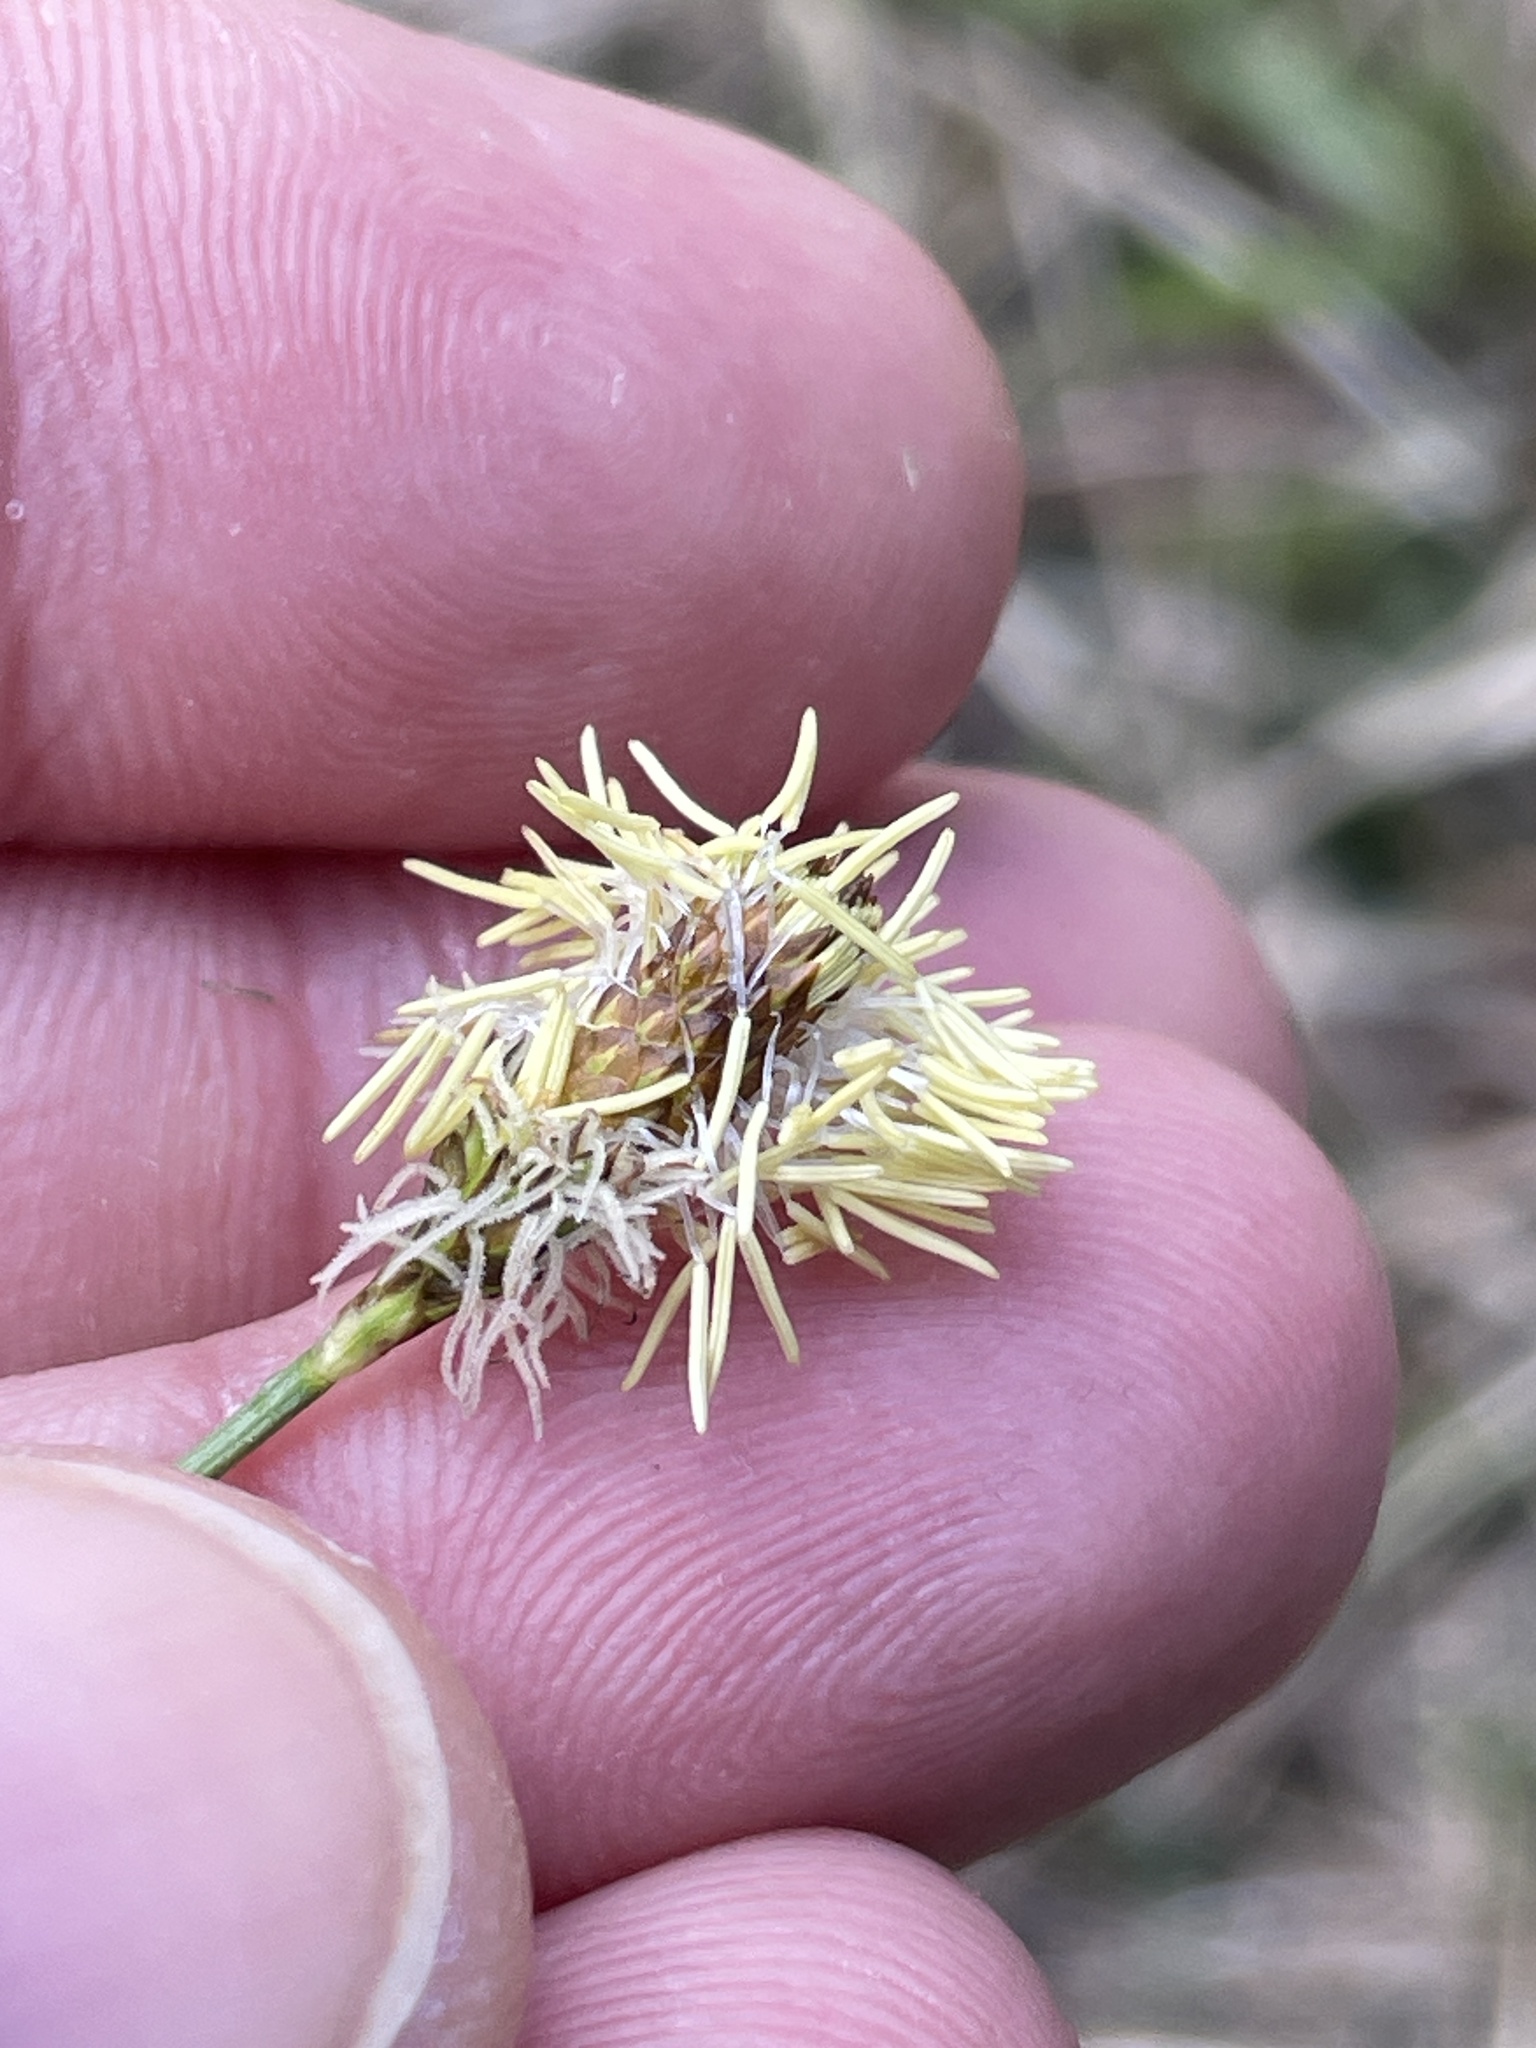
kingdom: Plantae
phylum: Tracheophyta
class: Liliopsida
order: Poales
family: Cyperaceae
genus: Carex
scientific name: Carex caryophyllea
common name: Spring sedge
